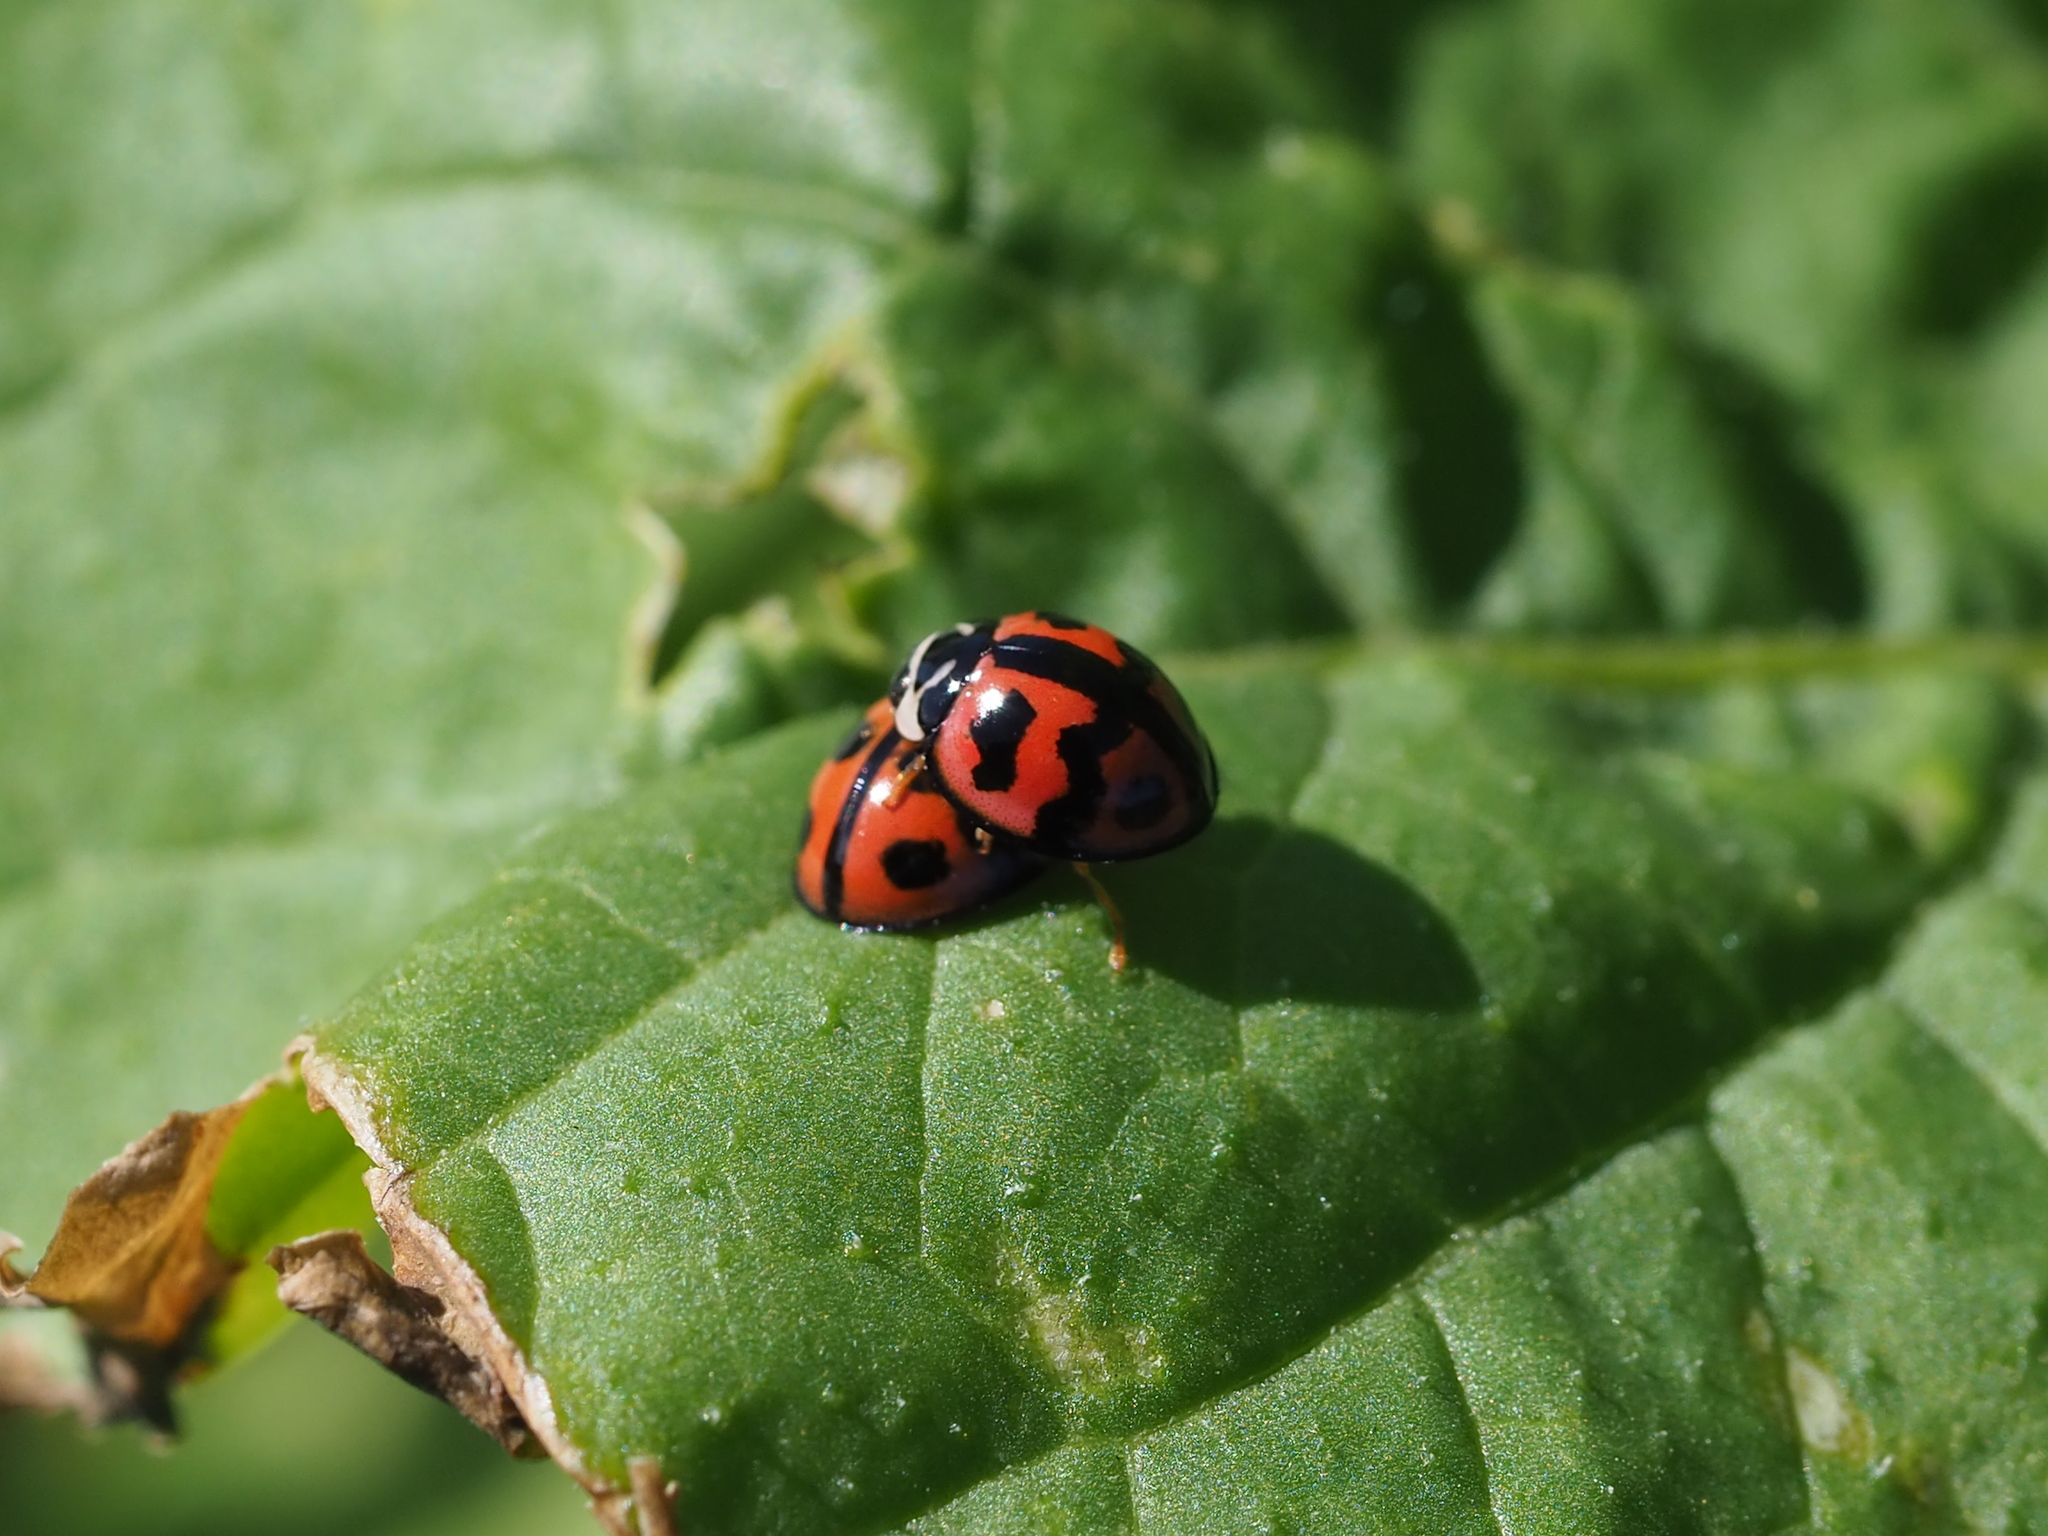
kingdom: Animalia
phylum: Arthropoda
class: Insecta
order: Coleoptera
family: Coccinellidae
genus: Cheilomenes
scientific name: Cheilomenes sexmaculata
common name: Ladybird beetle
